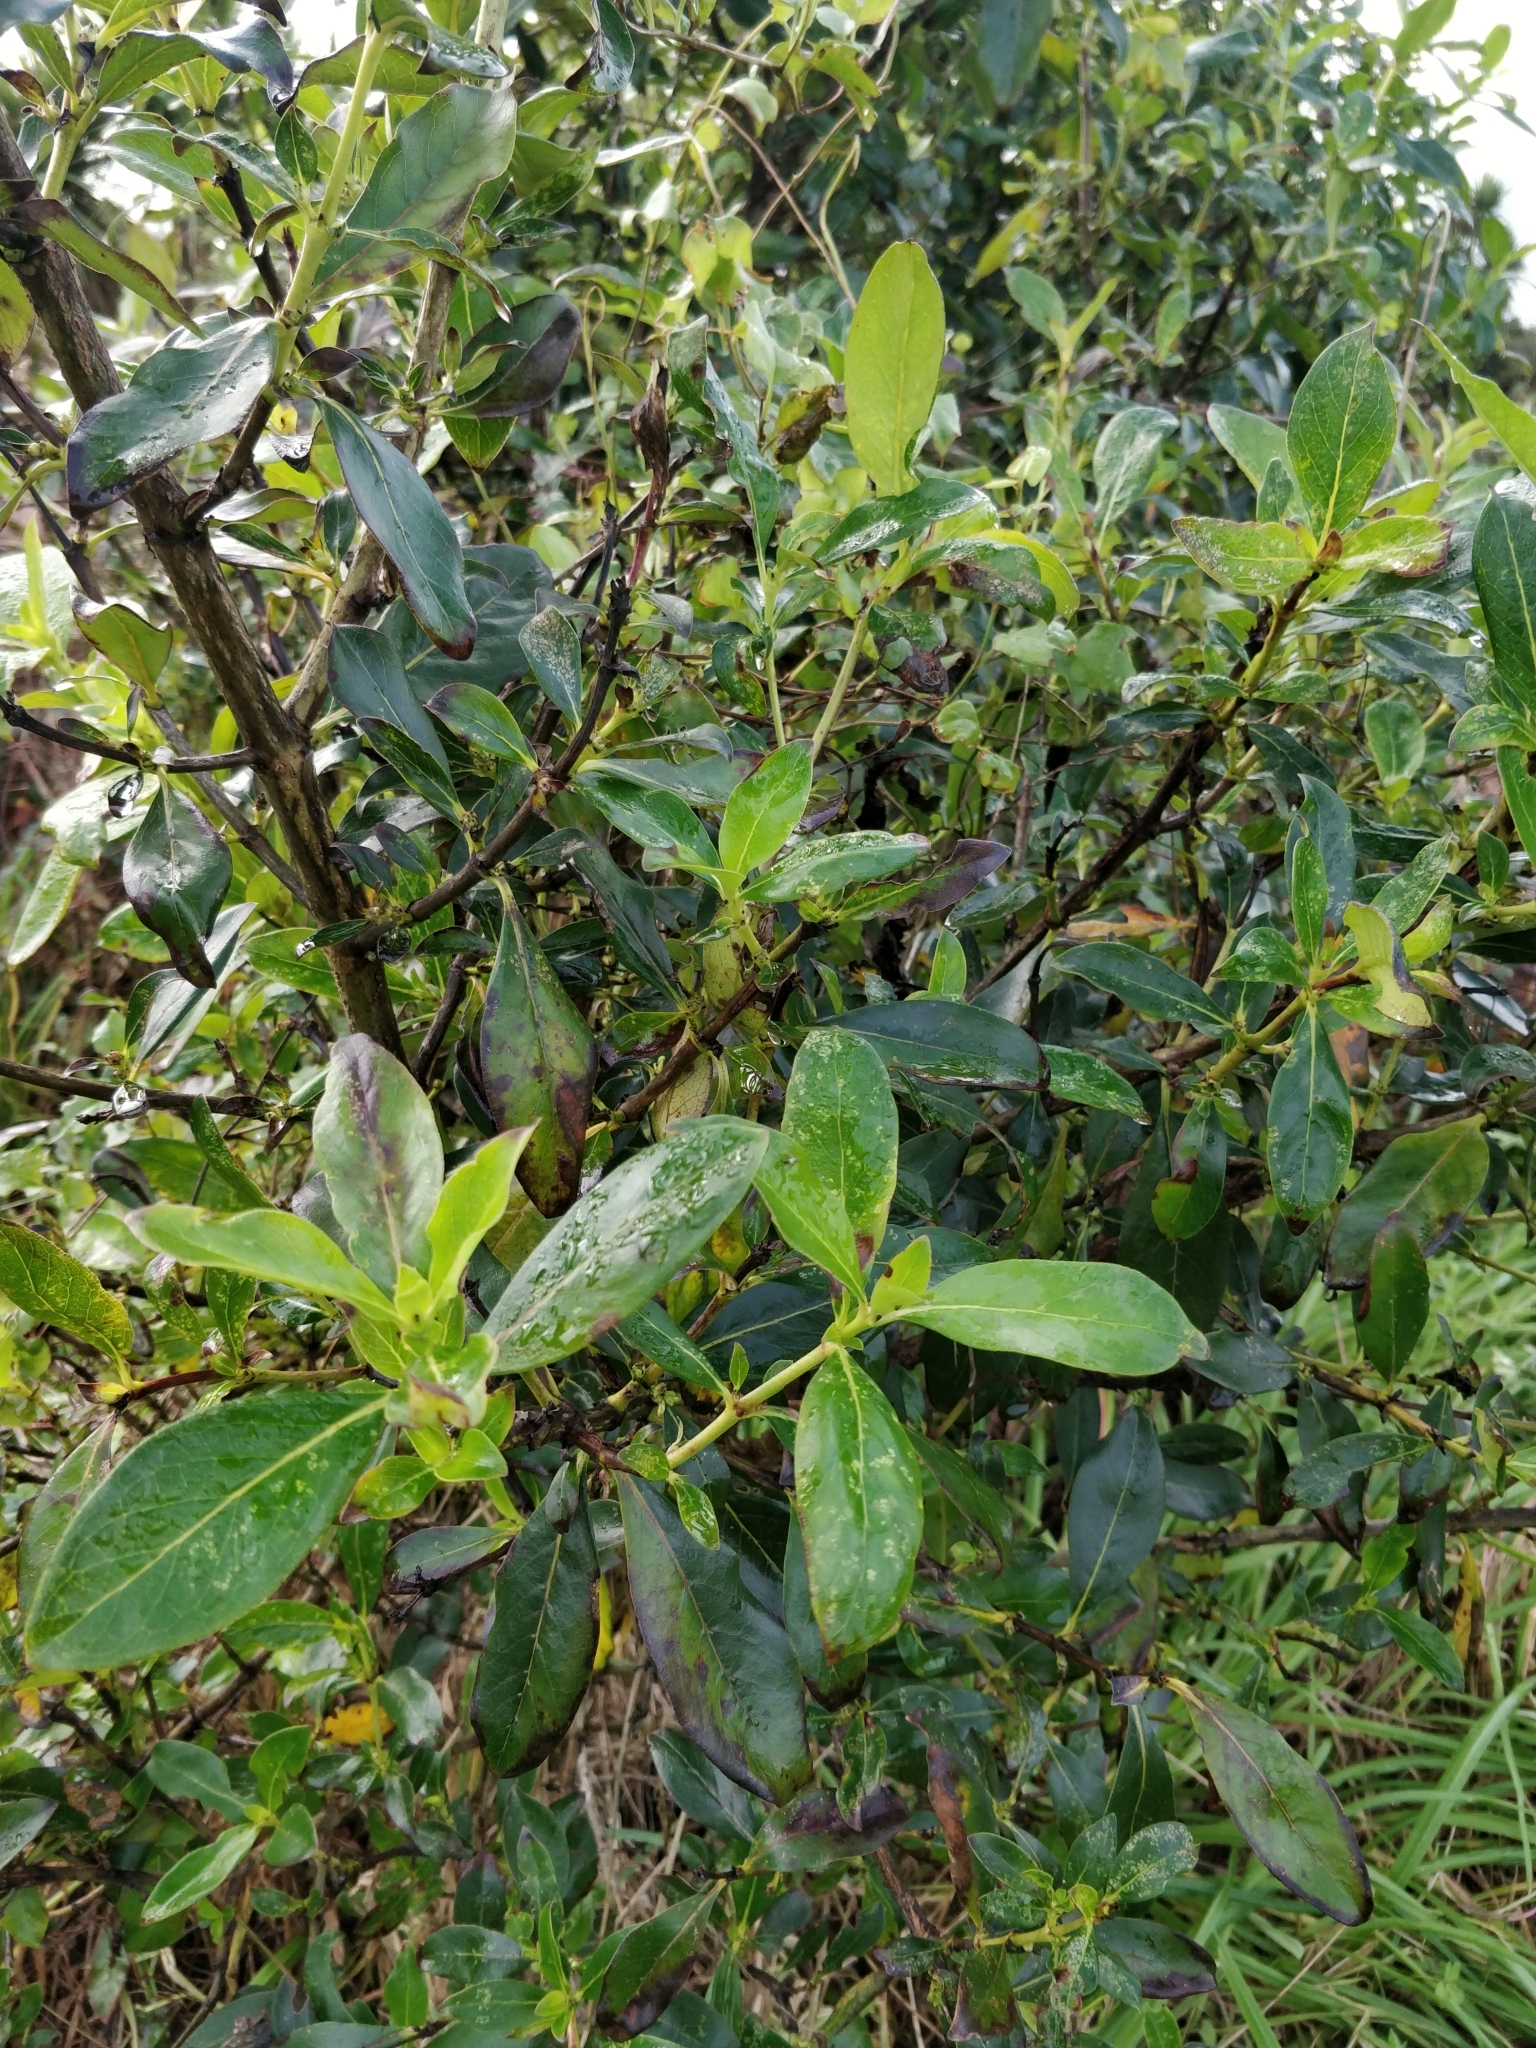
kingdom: Plantae
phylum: Tracheophyta
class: Magnoliopsida
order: Gentianales
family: Rubiaceae
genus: Coprosma
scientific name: Coprosma robusta
